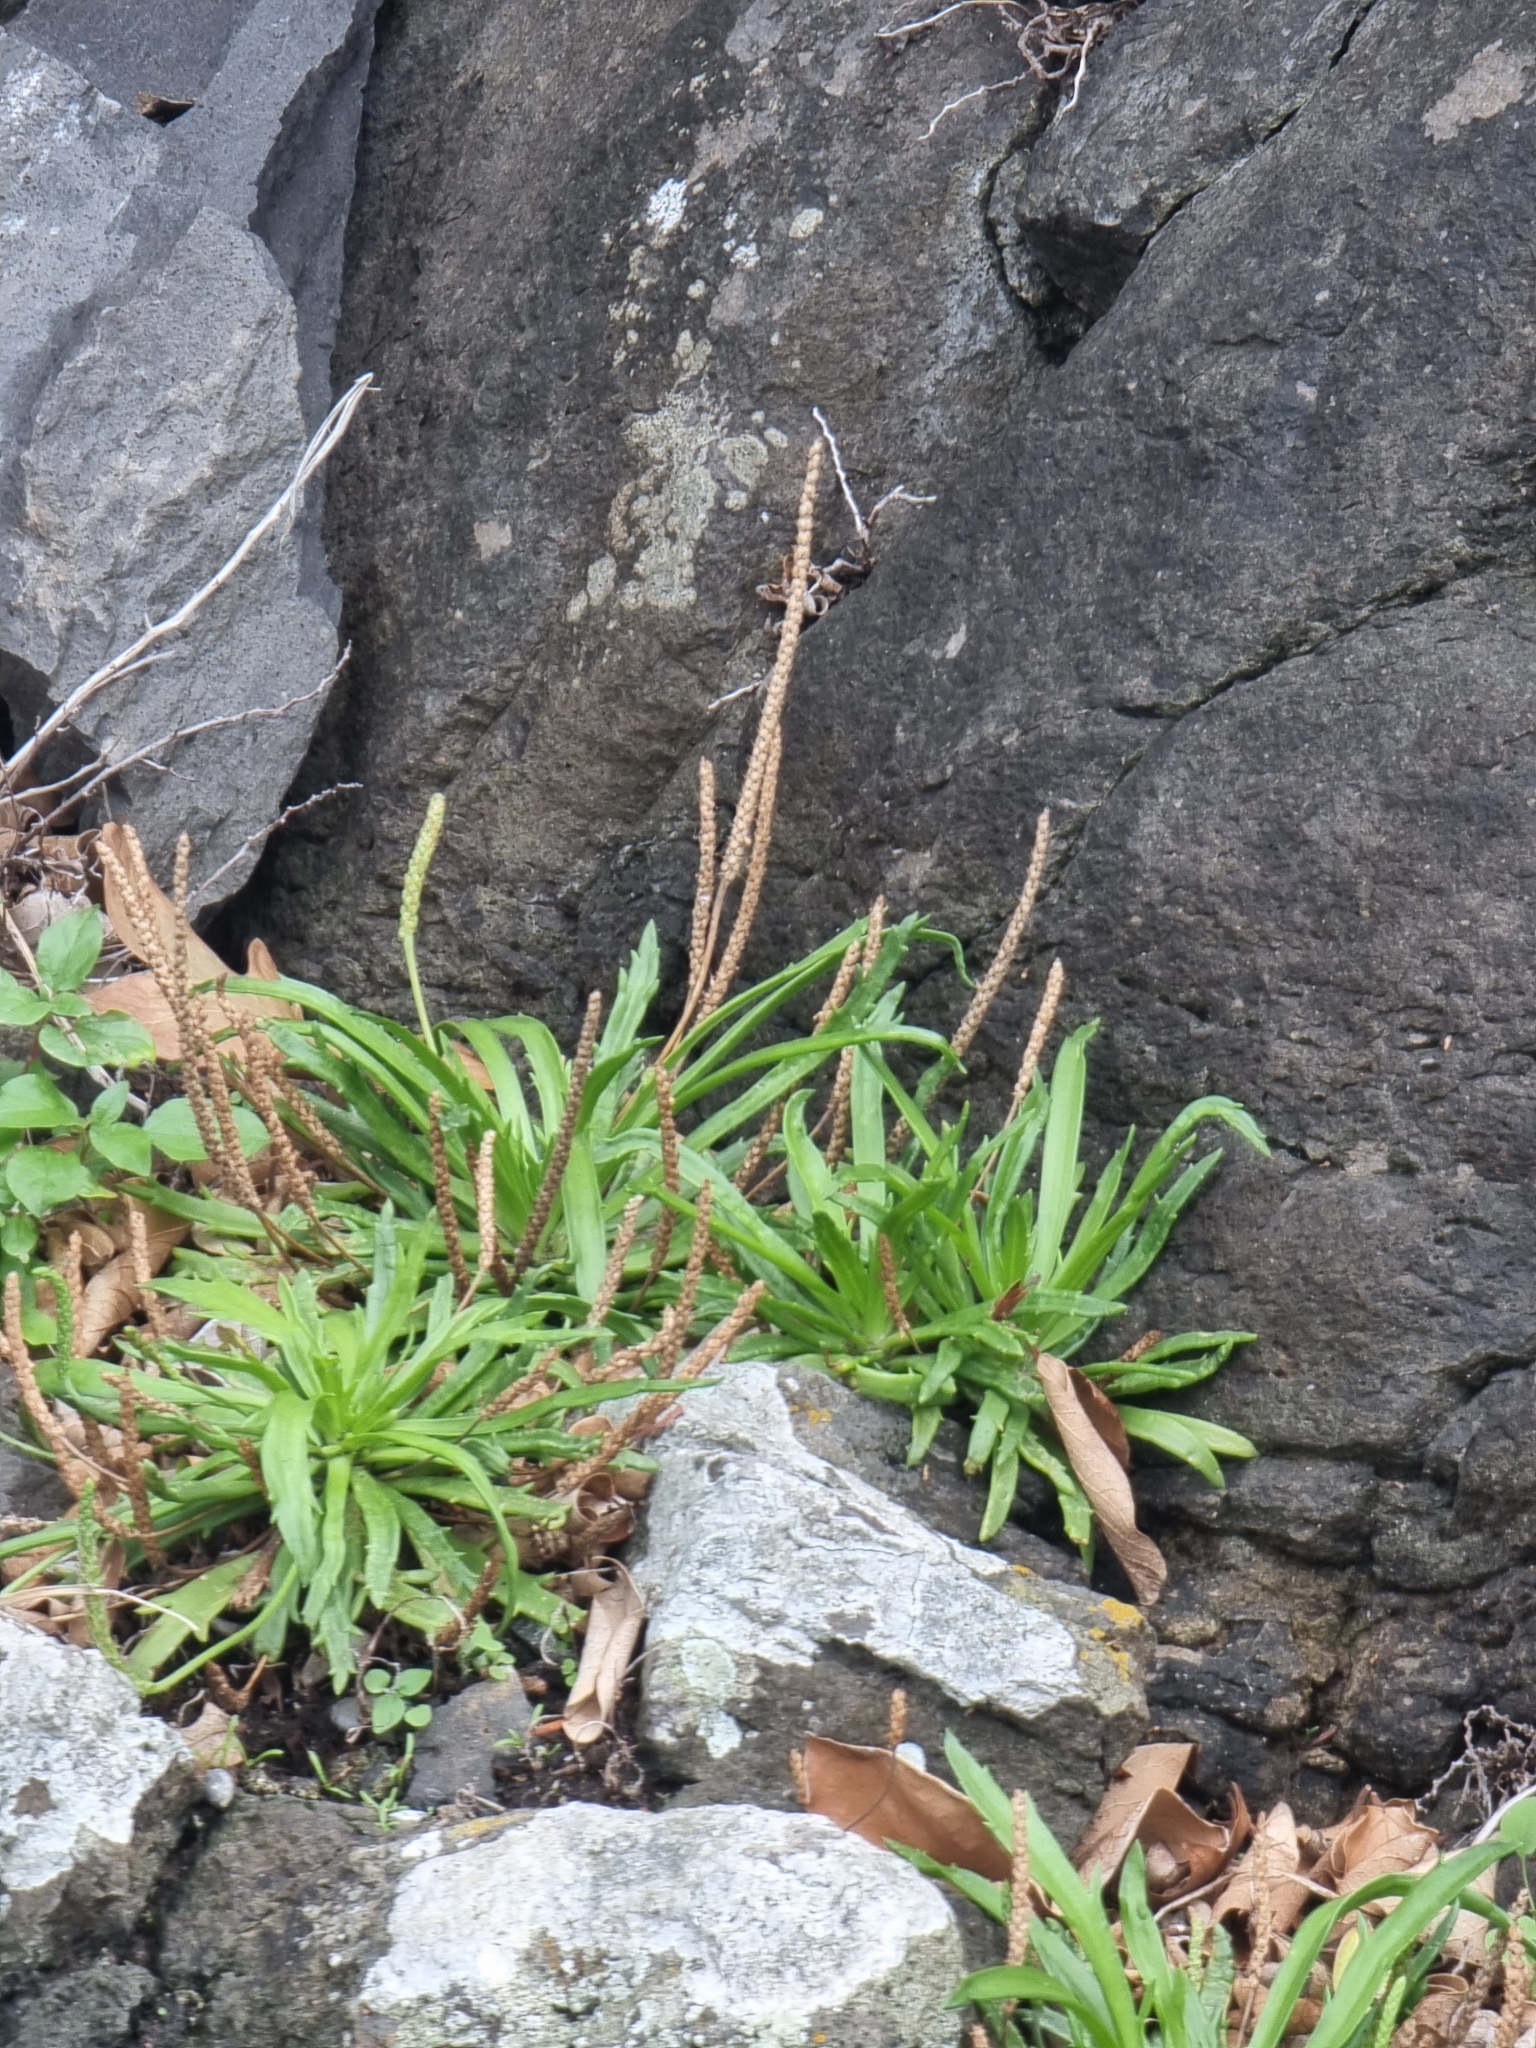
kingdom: Plantae
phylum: Tracheophyta
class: Magnoliopsida
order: Lamiales
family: Plantaginaceae
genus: Plantago
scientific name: Plantago coronopus
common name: Buck's-horn plantain
